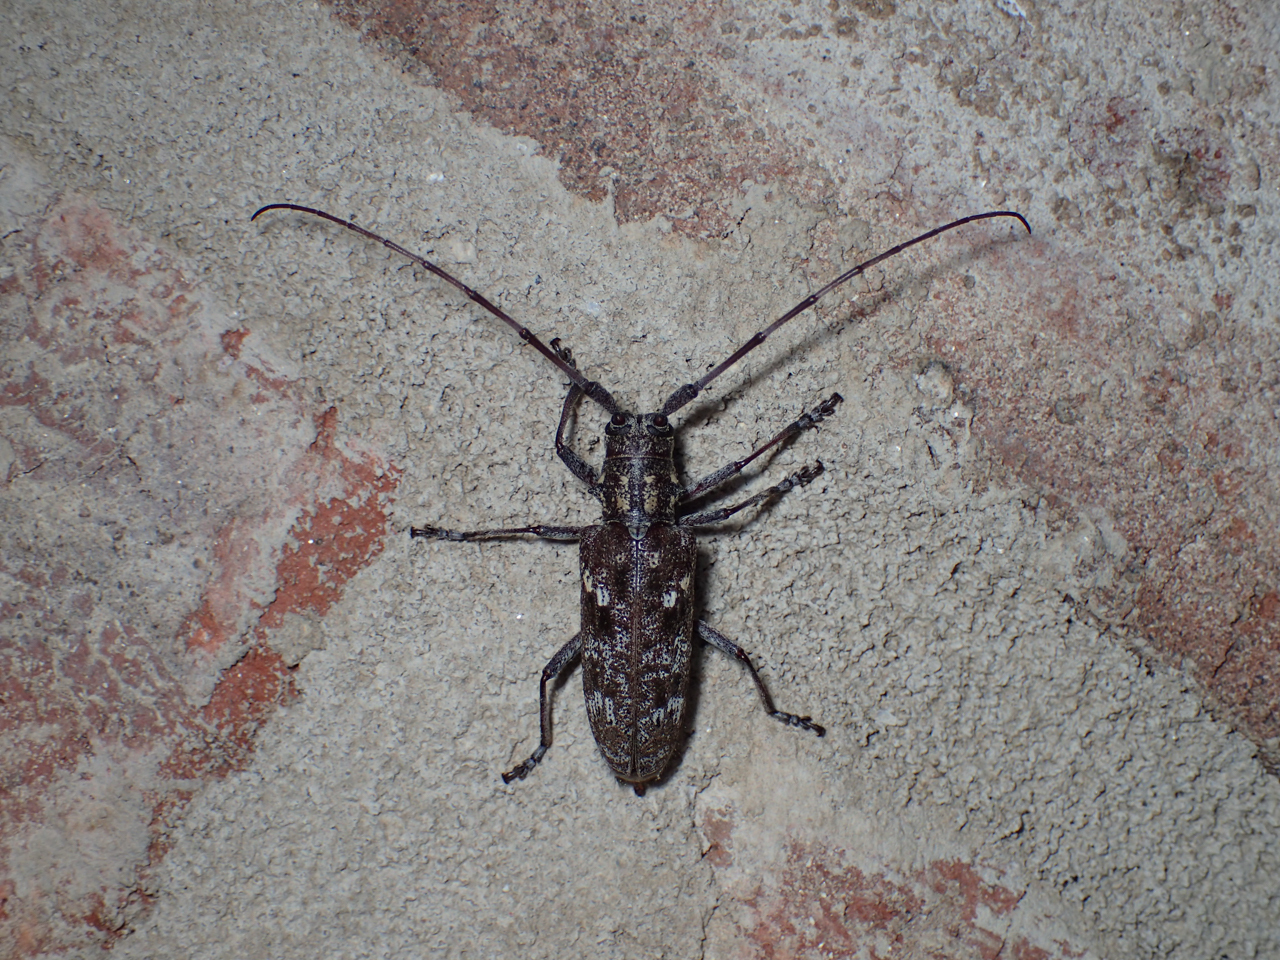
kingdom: Animalia
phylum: Arthropoda
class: Insecta
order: Coleoptera
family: Cerambycidae
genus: Monochamus
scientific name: Monochamus carolinensis
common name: Carolina pine sawyer
